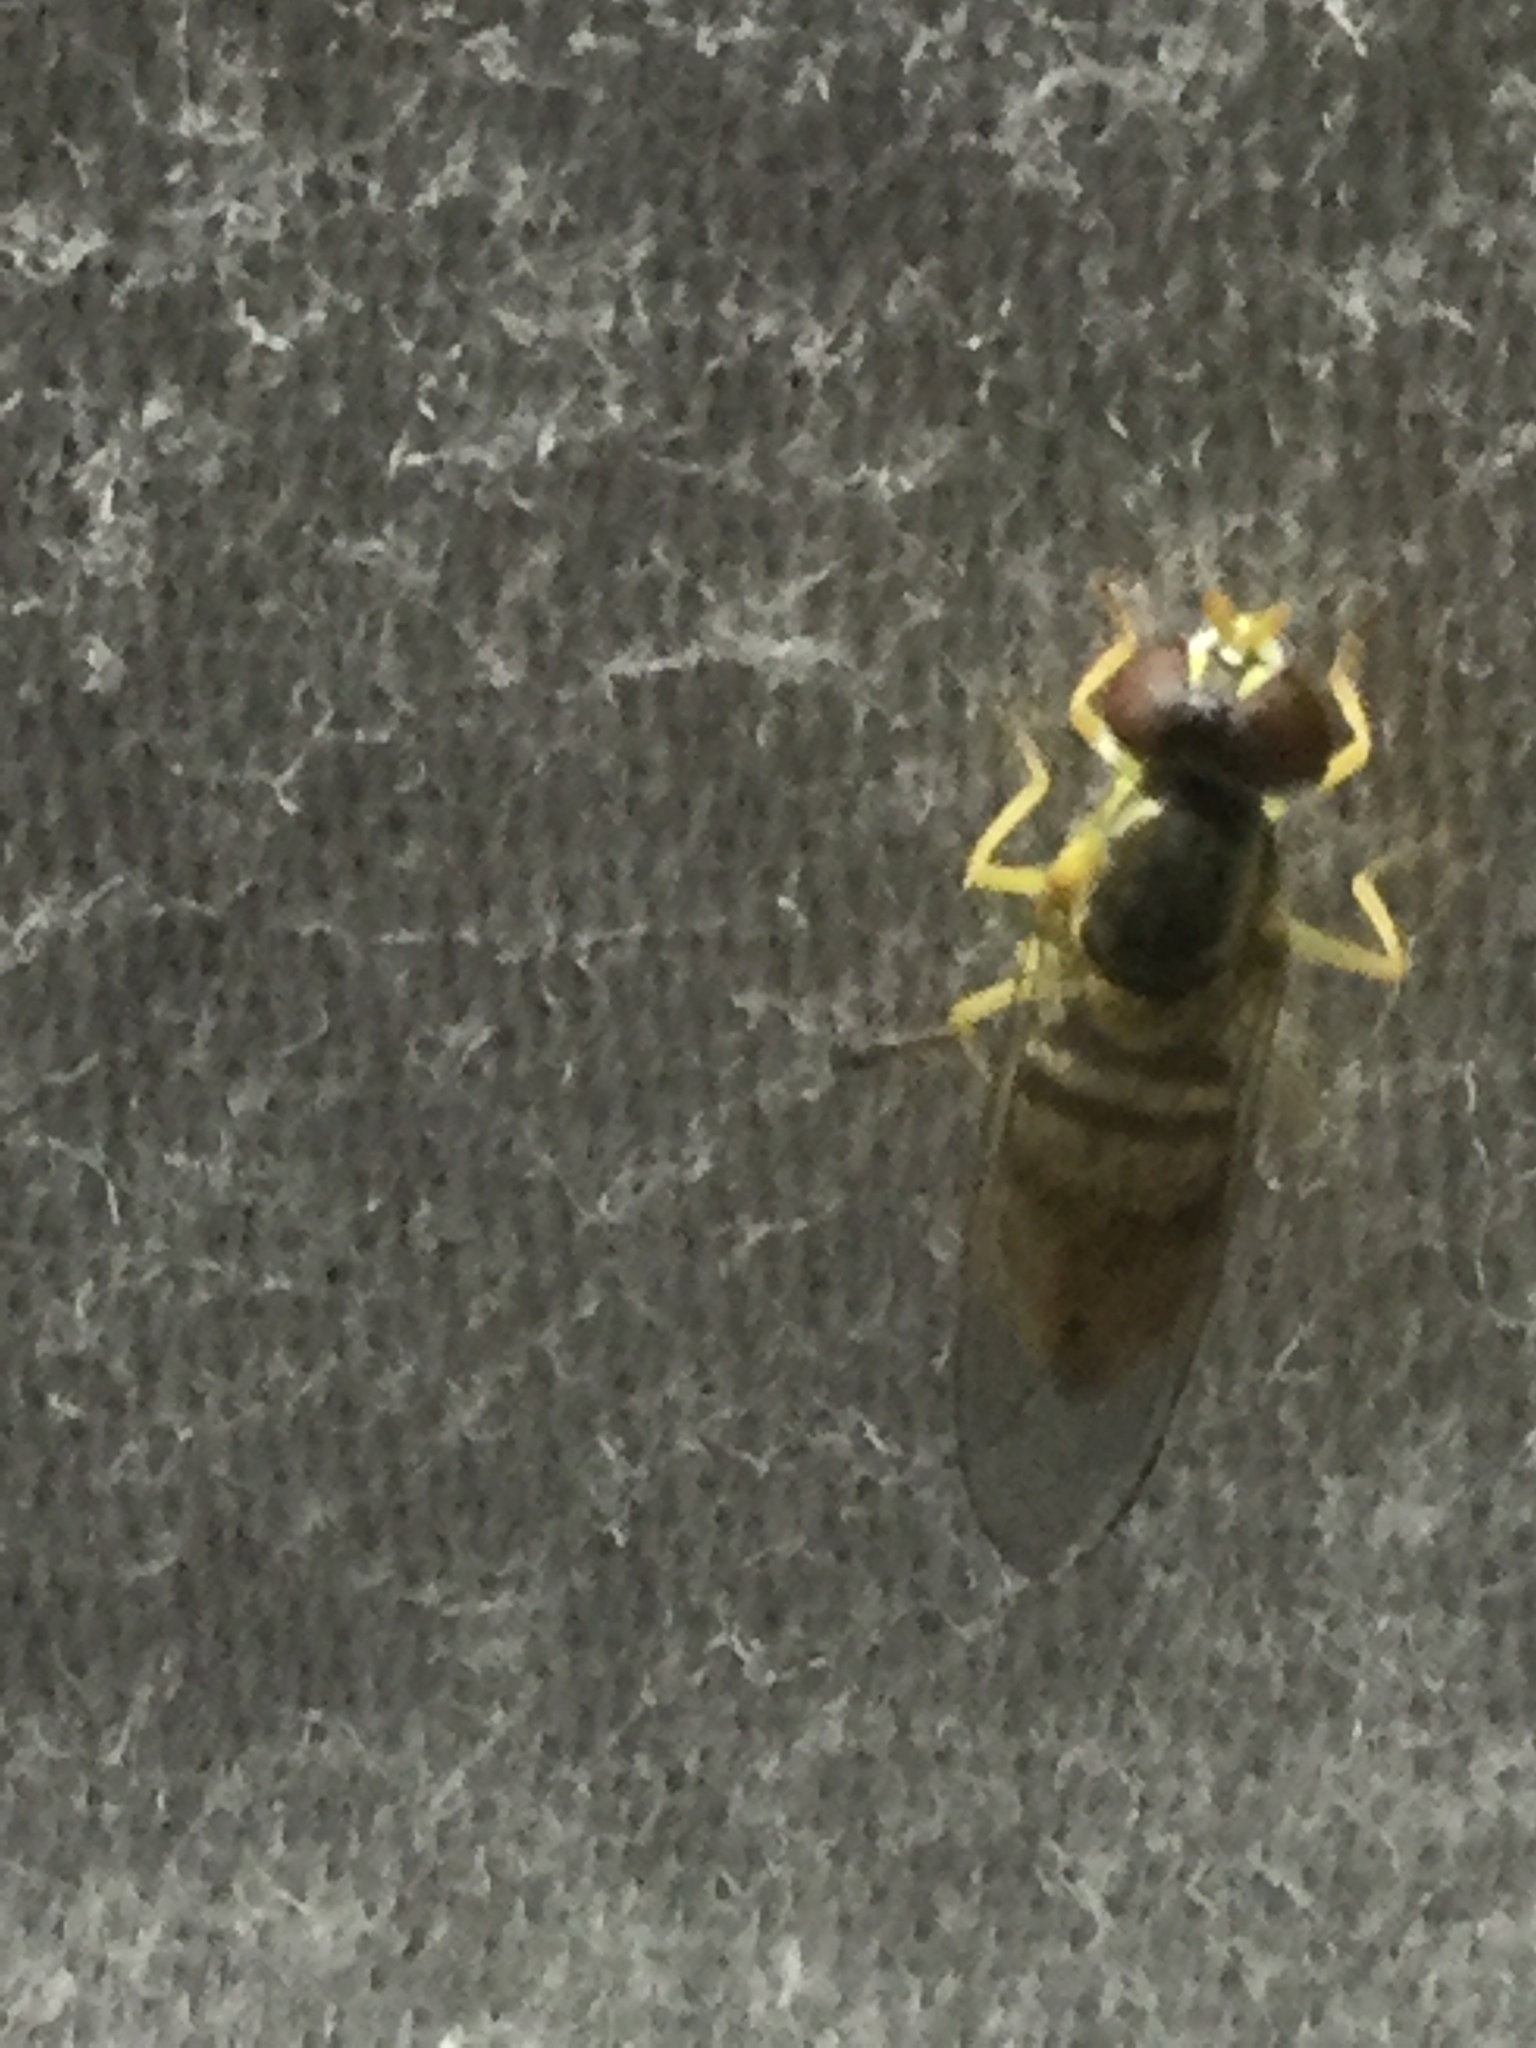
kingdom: Animalia
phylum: Arthropoda
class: Insecta
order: Diptera
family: Syrphidae
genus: Toxomerus
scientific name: Toxomerus marginatus
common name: Syrphid fly
